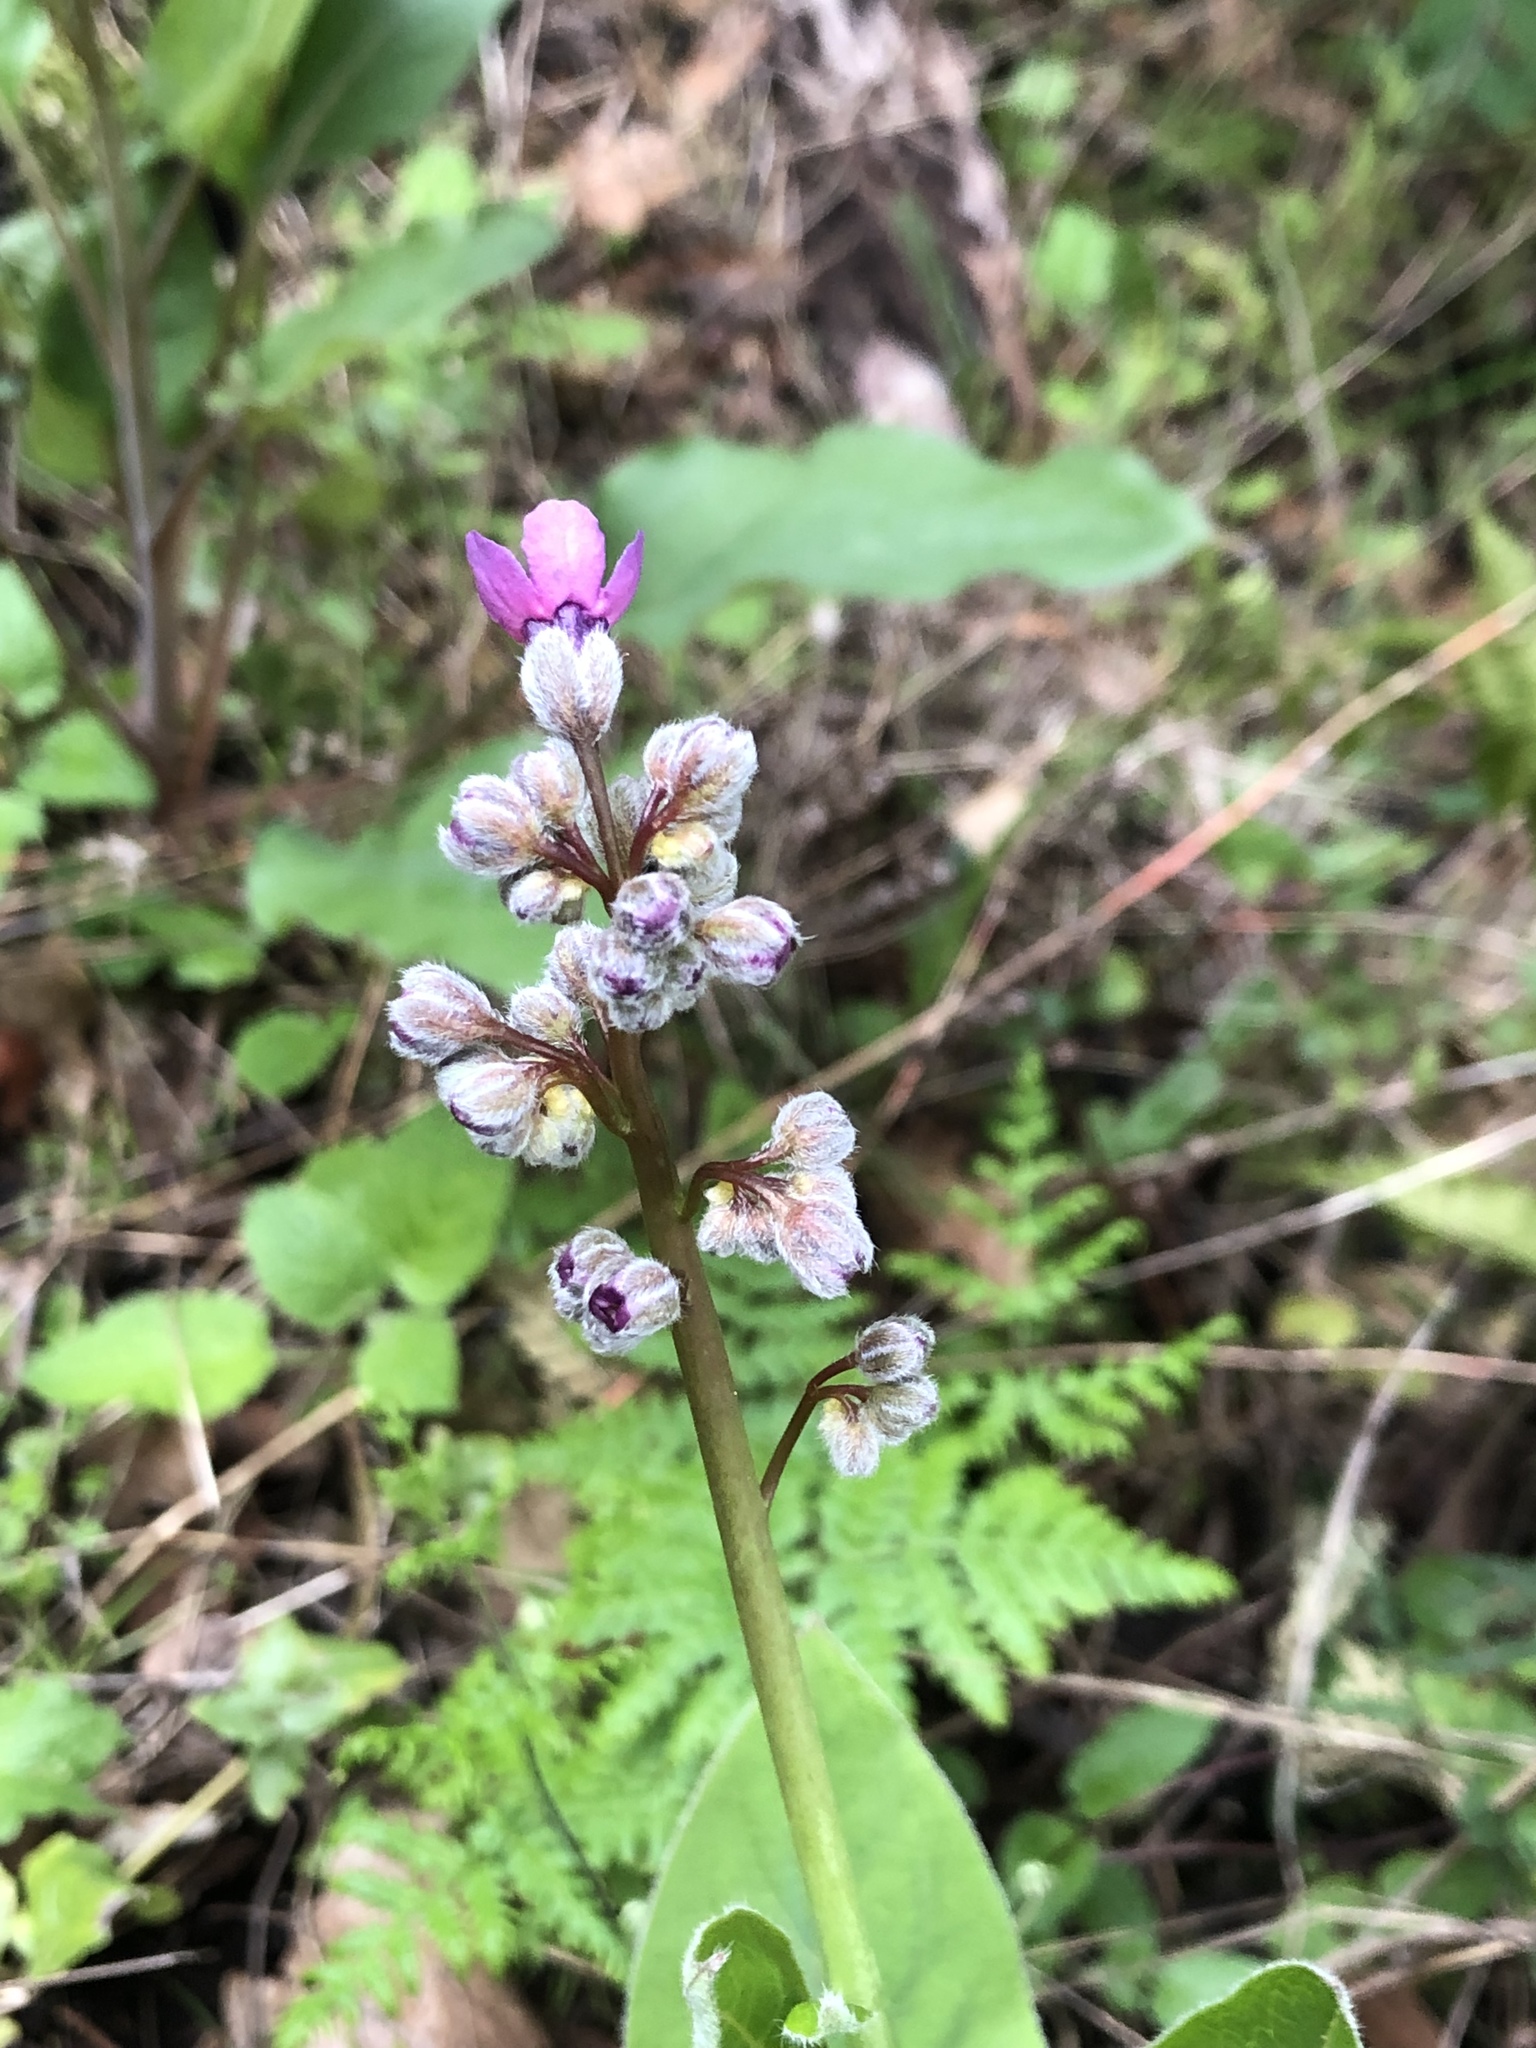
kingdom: Plantae
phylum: Tracheophyta
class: Magnoliopsida
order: Boraginales
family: Boraginaceae
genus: Adelinia
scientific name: Adelinia grande
